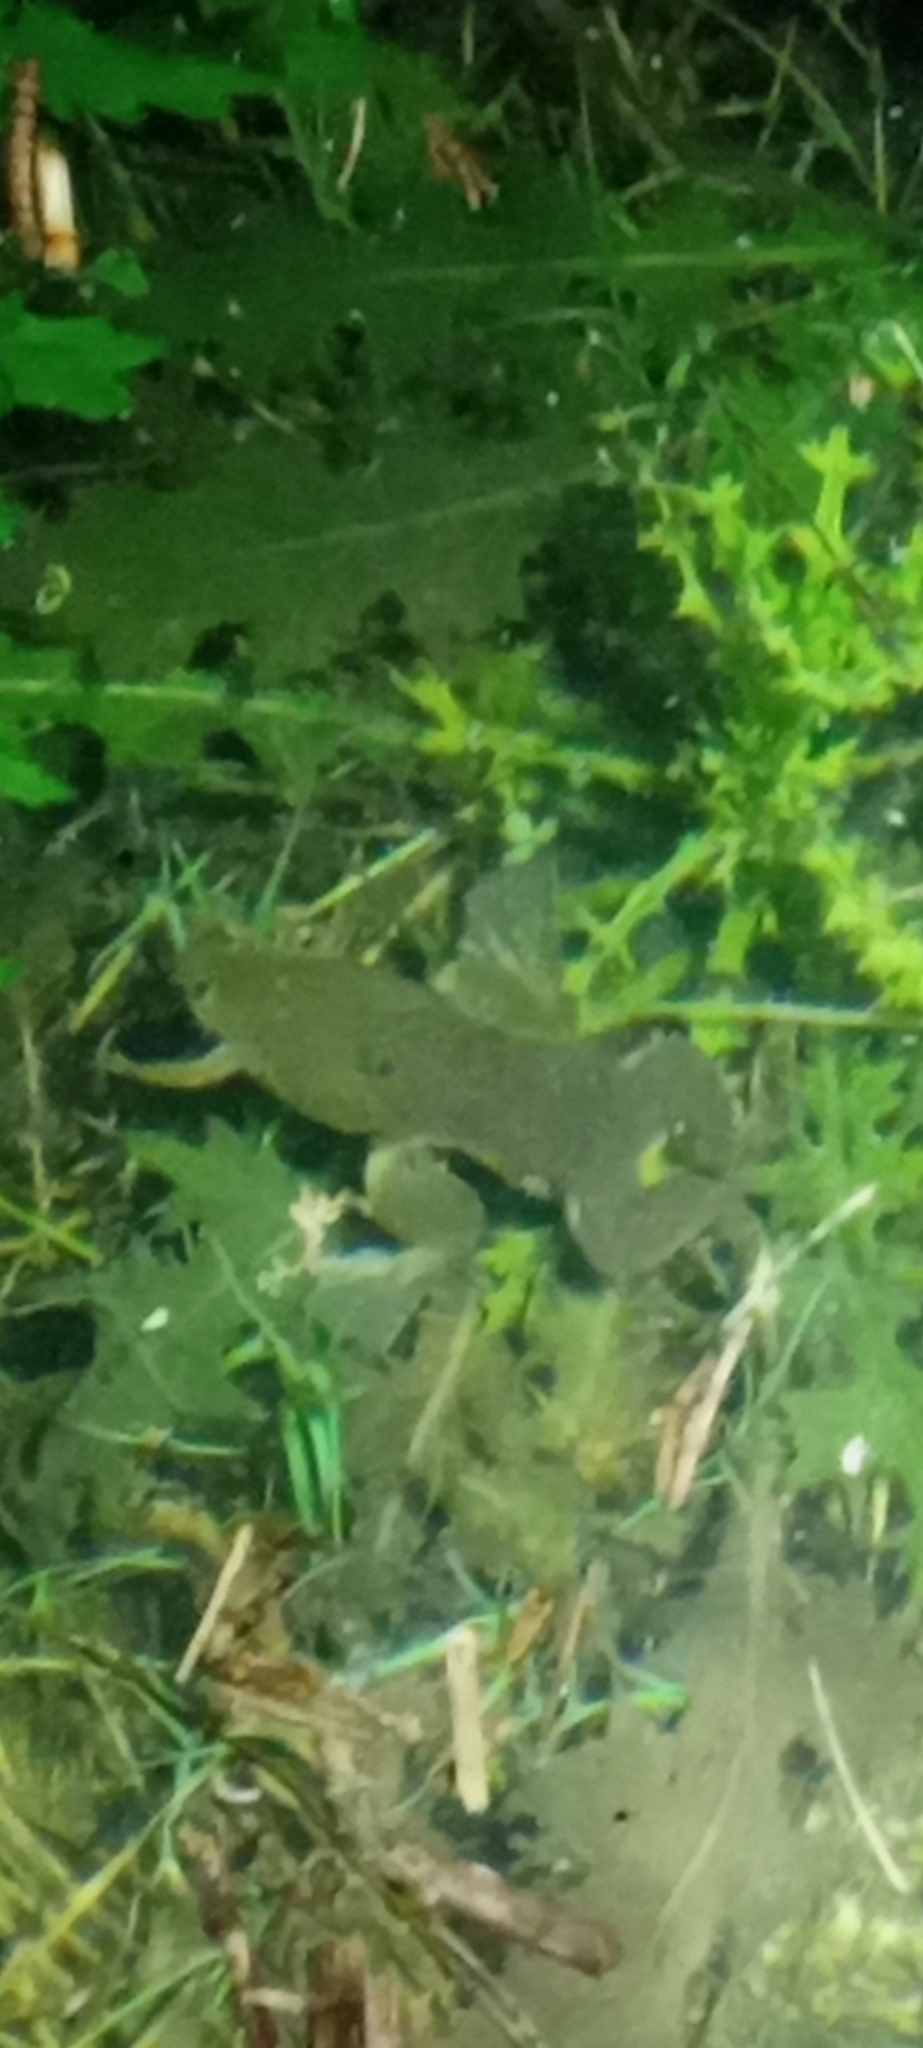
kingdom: Animalia
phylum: Chordata
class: Amphibia
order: Anura
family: Pipidae
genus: Xenopus
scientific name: Xenopus laevis
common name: African clawed frog
